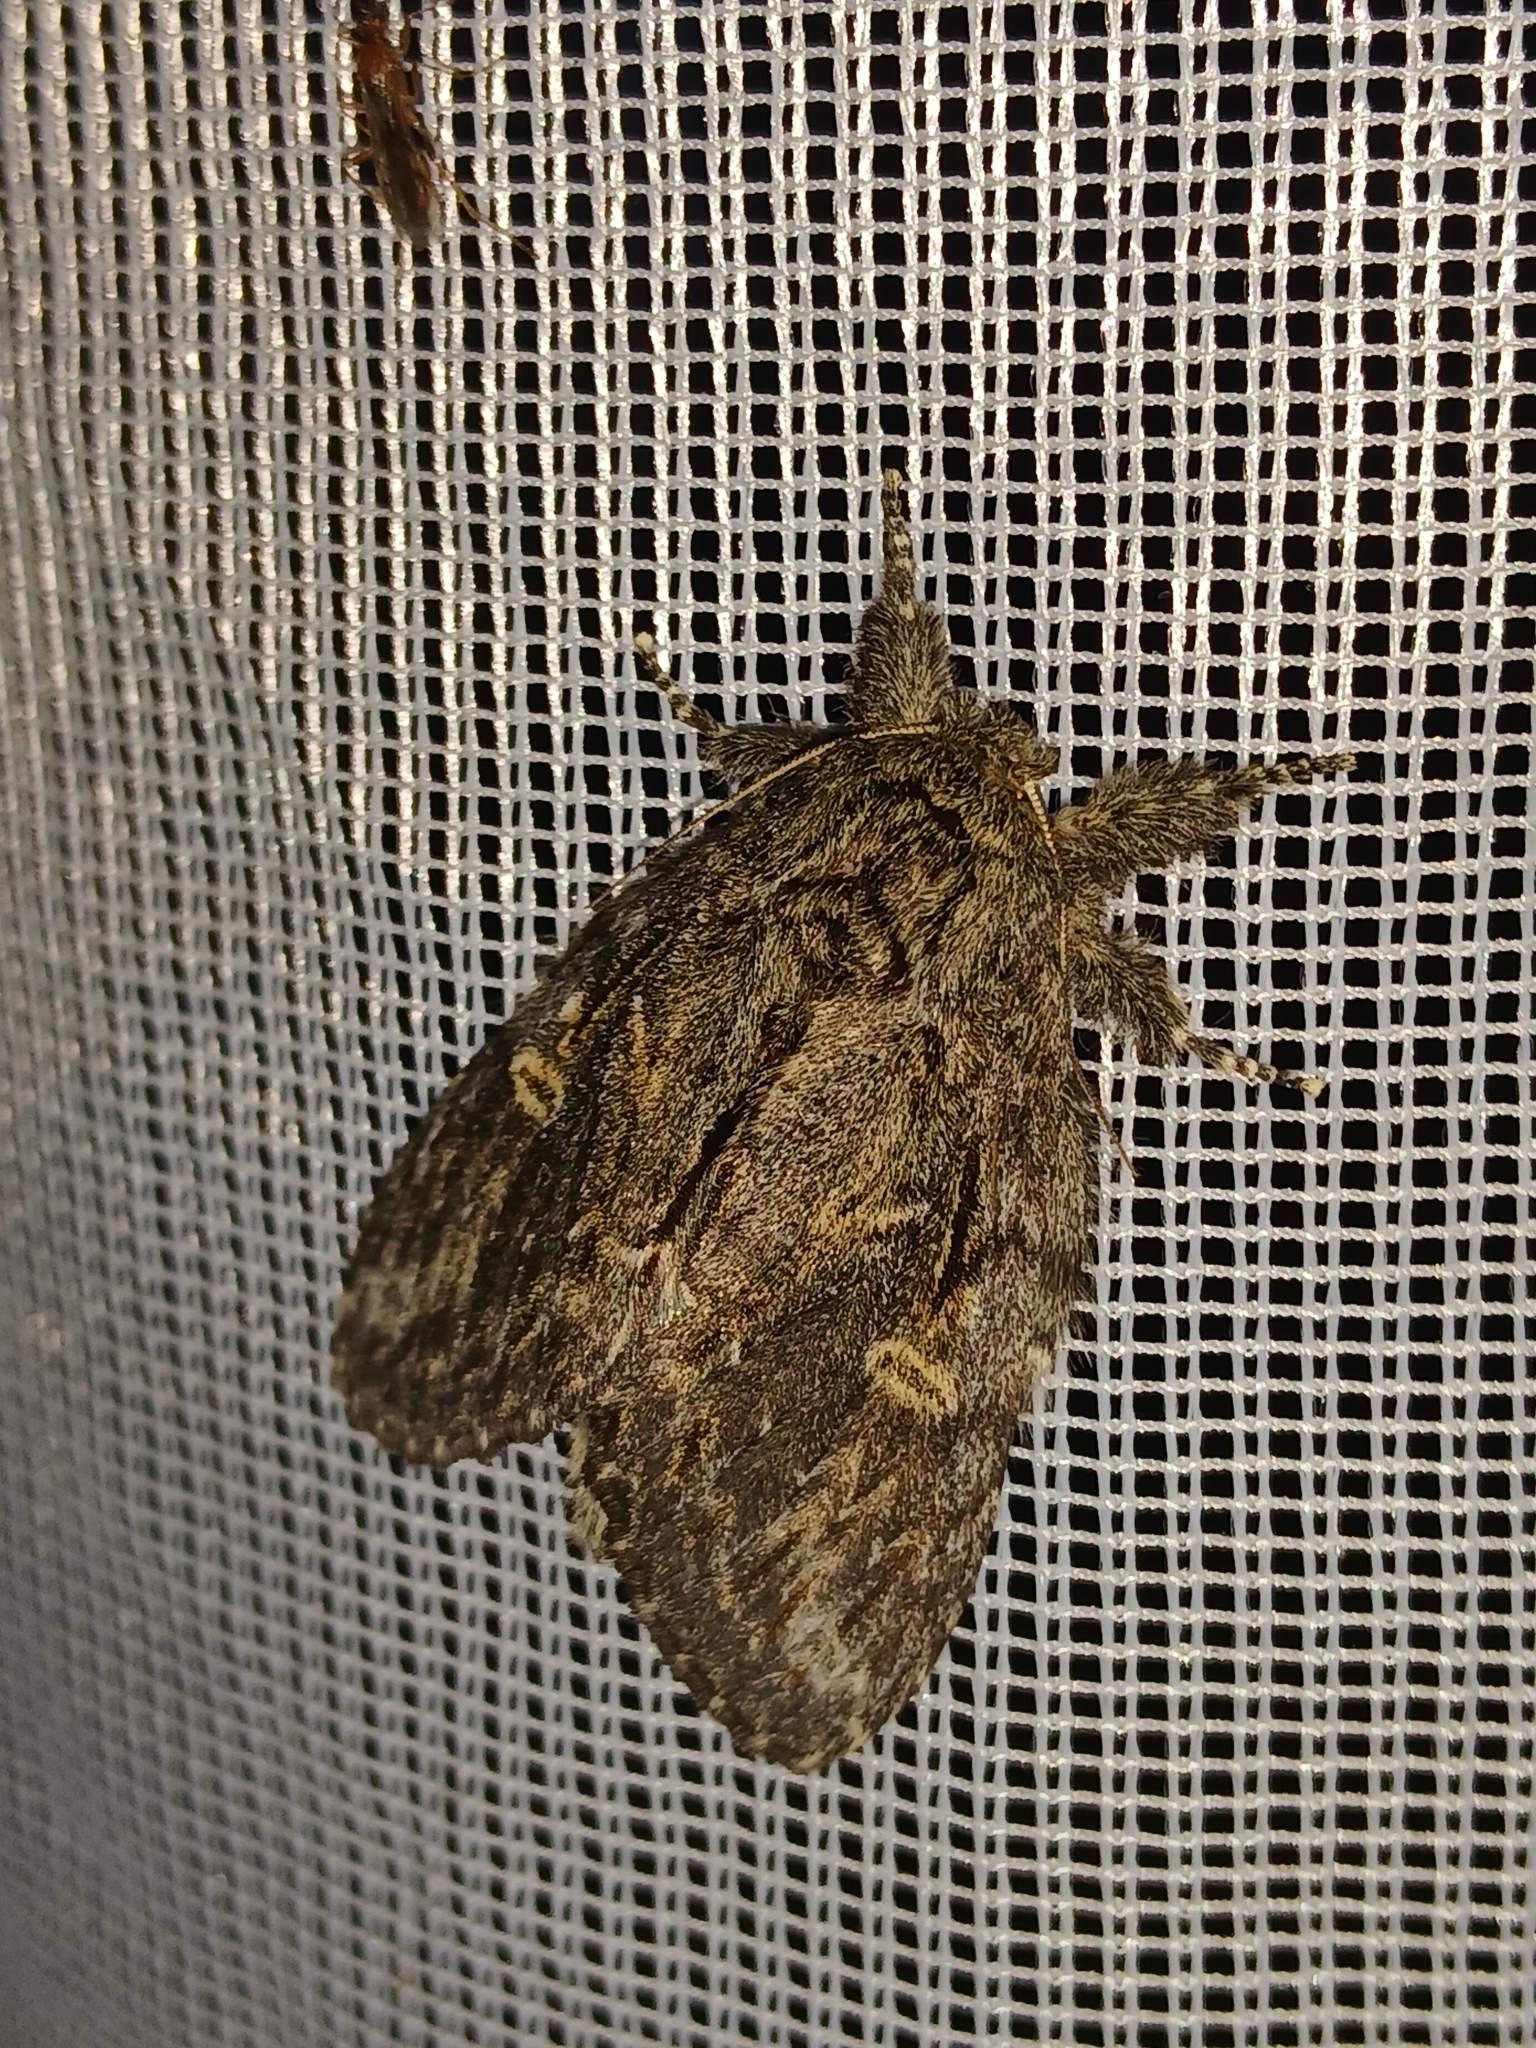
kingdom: Animalia
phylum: Arthropoda
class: Insecta
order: Lepidoptera
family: Notodontidae
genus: Peridea
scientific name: Peridea anceps
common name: Great prominent
